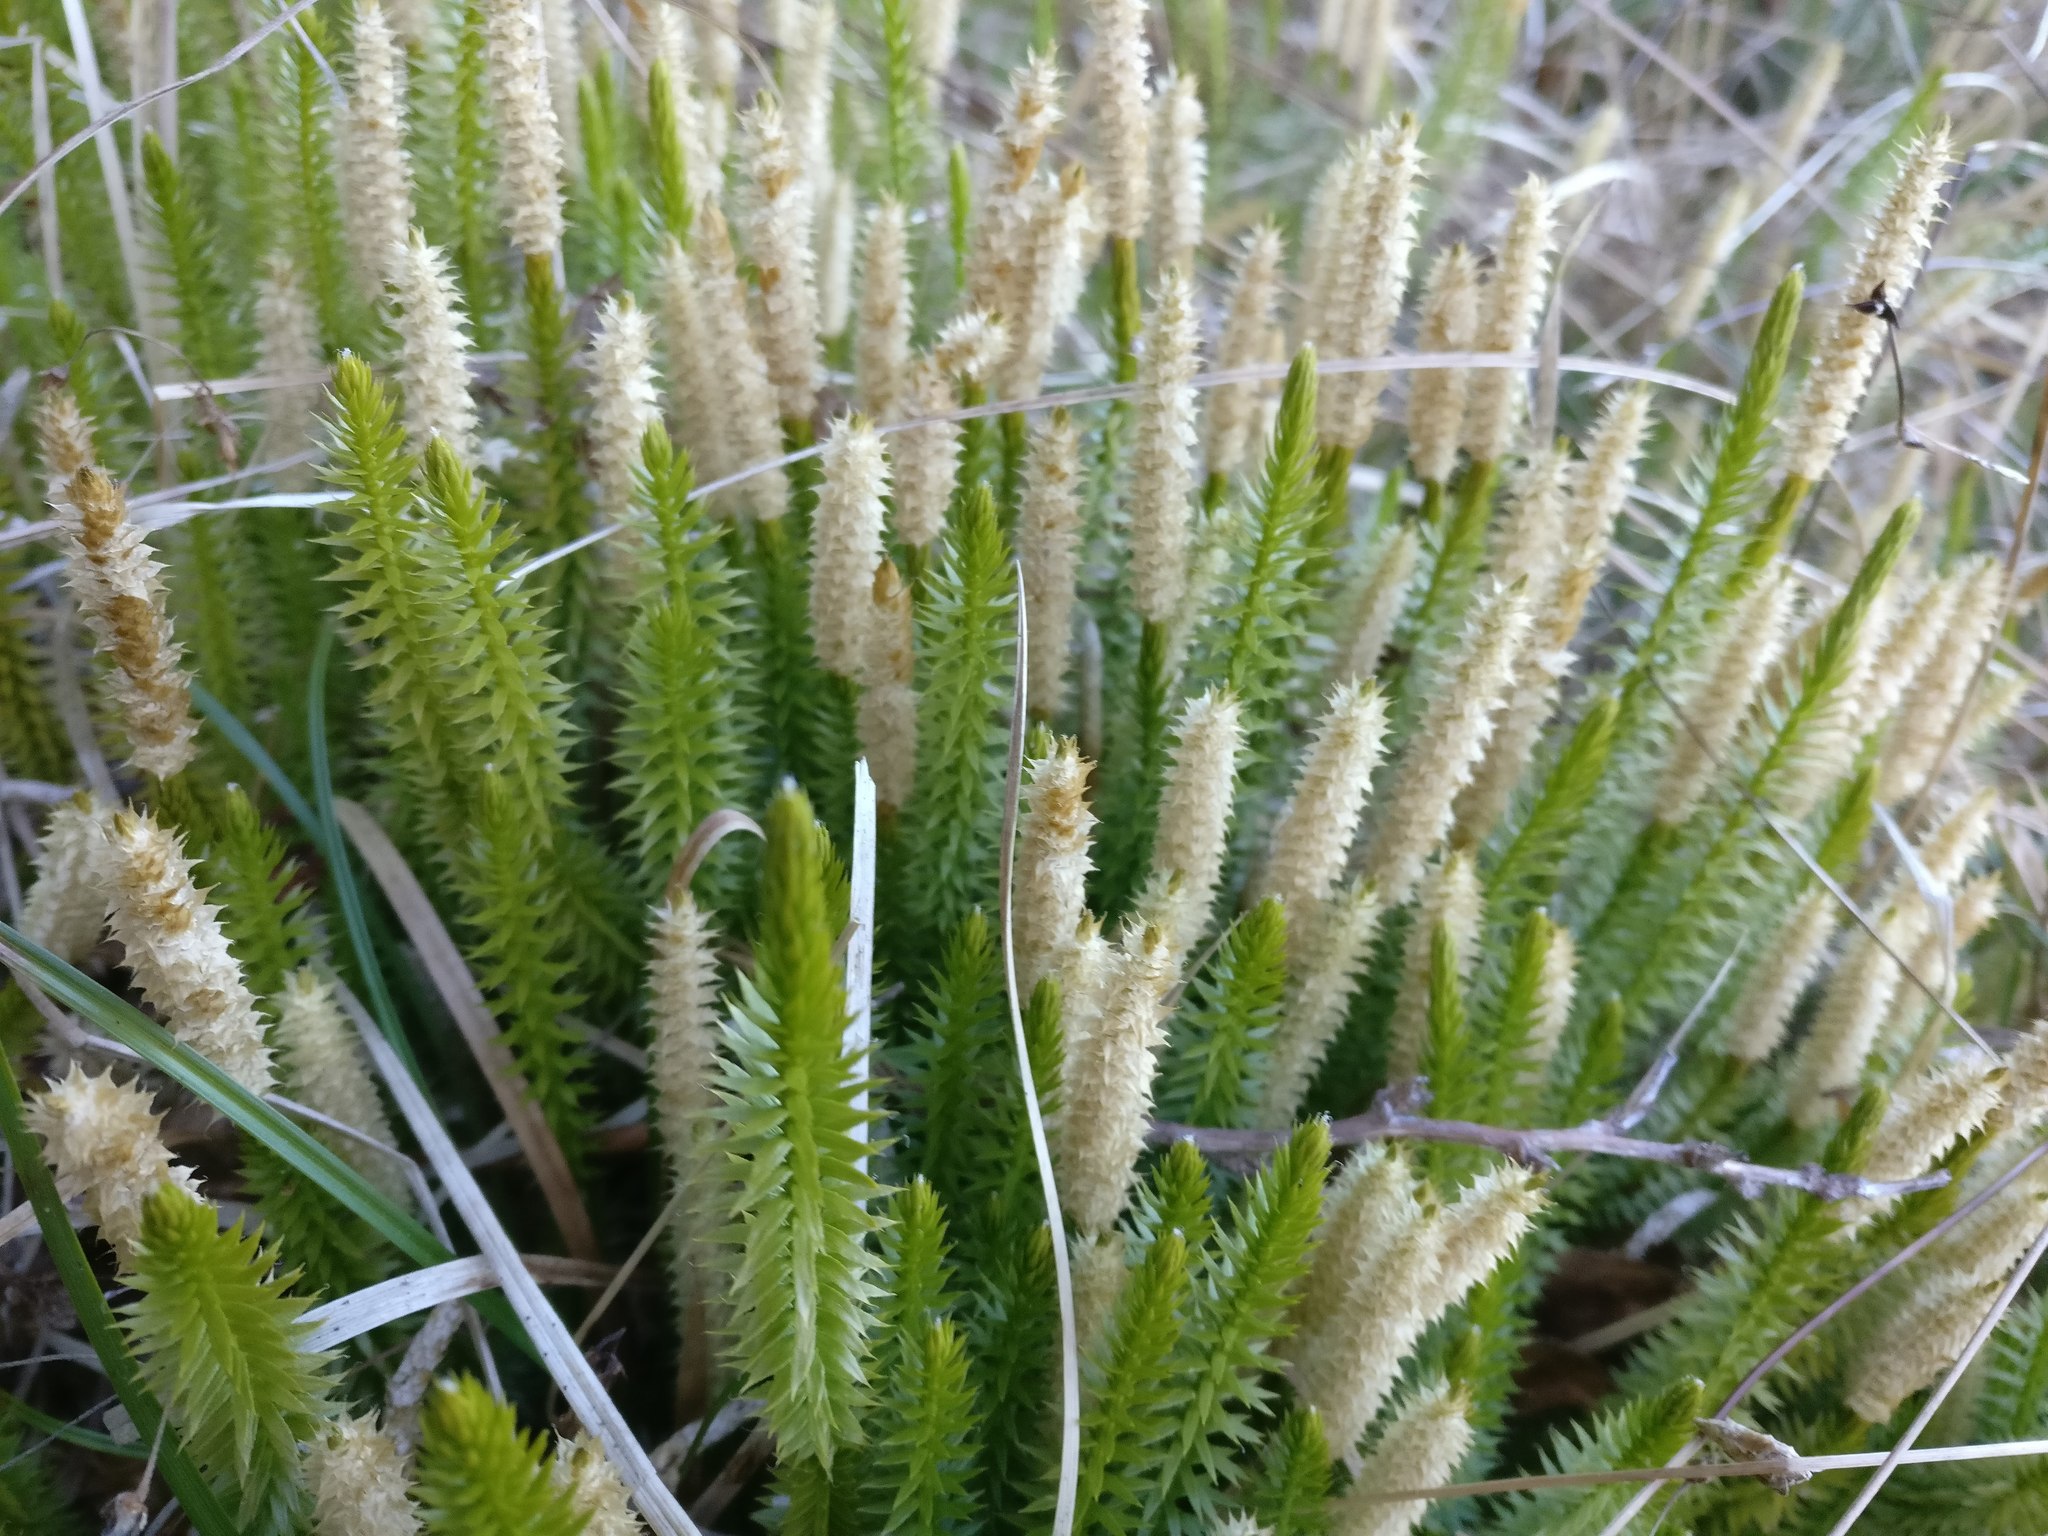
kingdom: Plantae
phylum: Tracheophyta
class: Lycopodiopsida
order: Lycopodiales
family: Lycopodiaceae
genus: Spinulum
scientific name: Spinulum annotinum
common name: Interrupted club-moss
